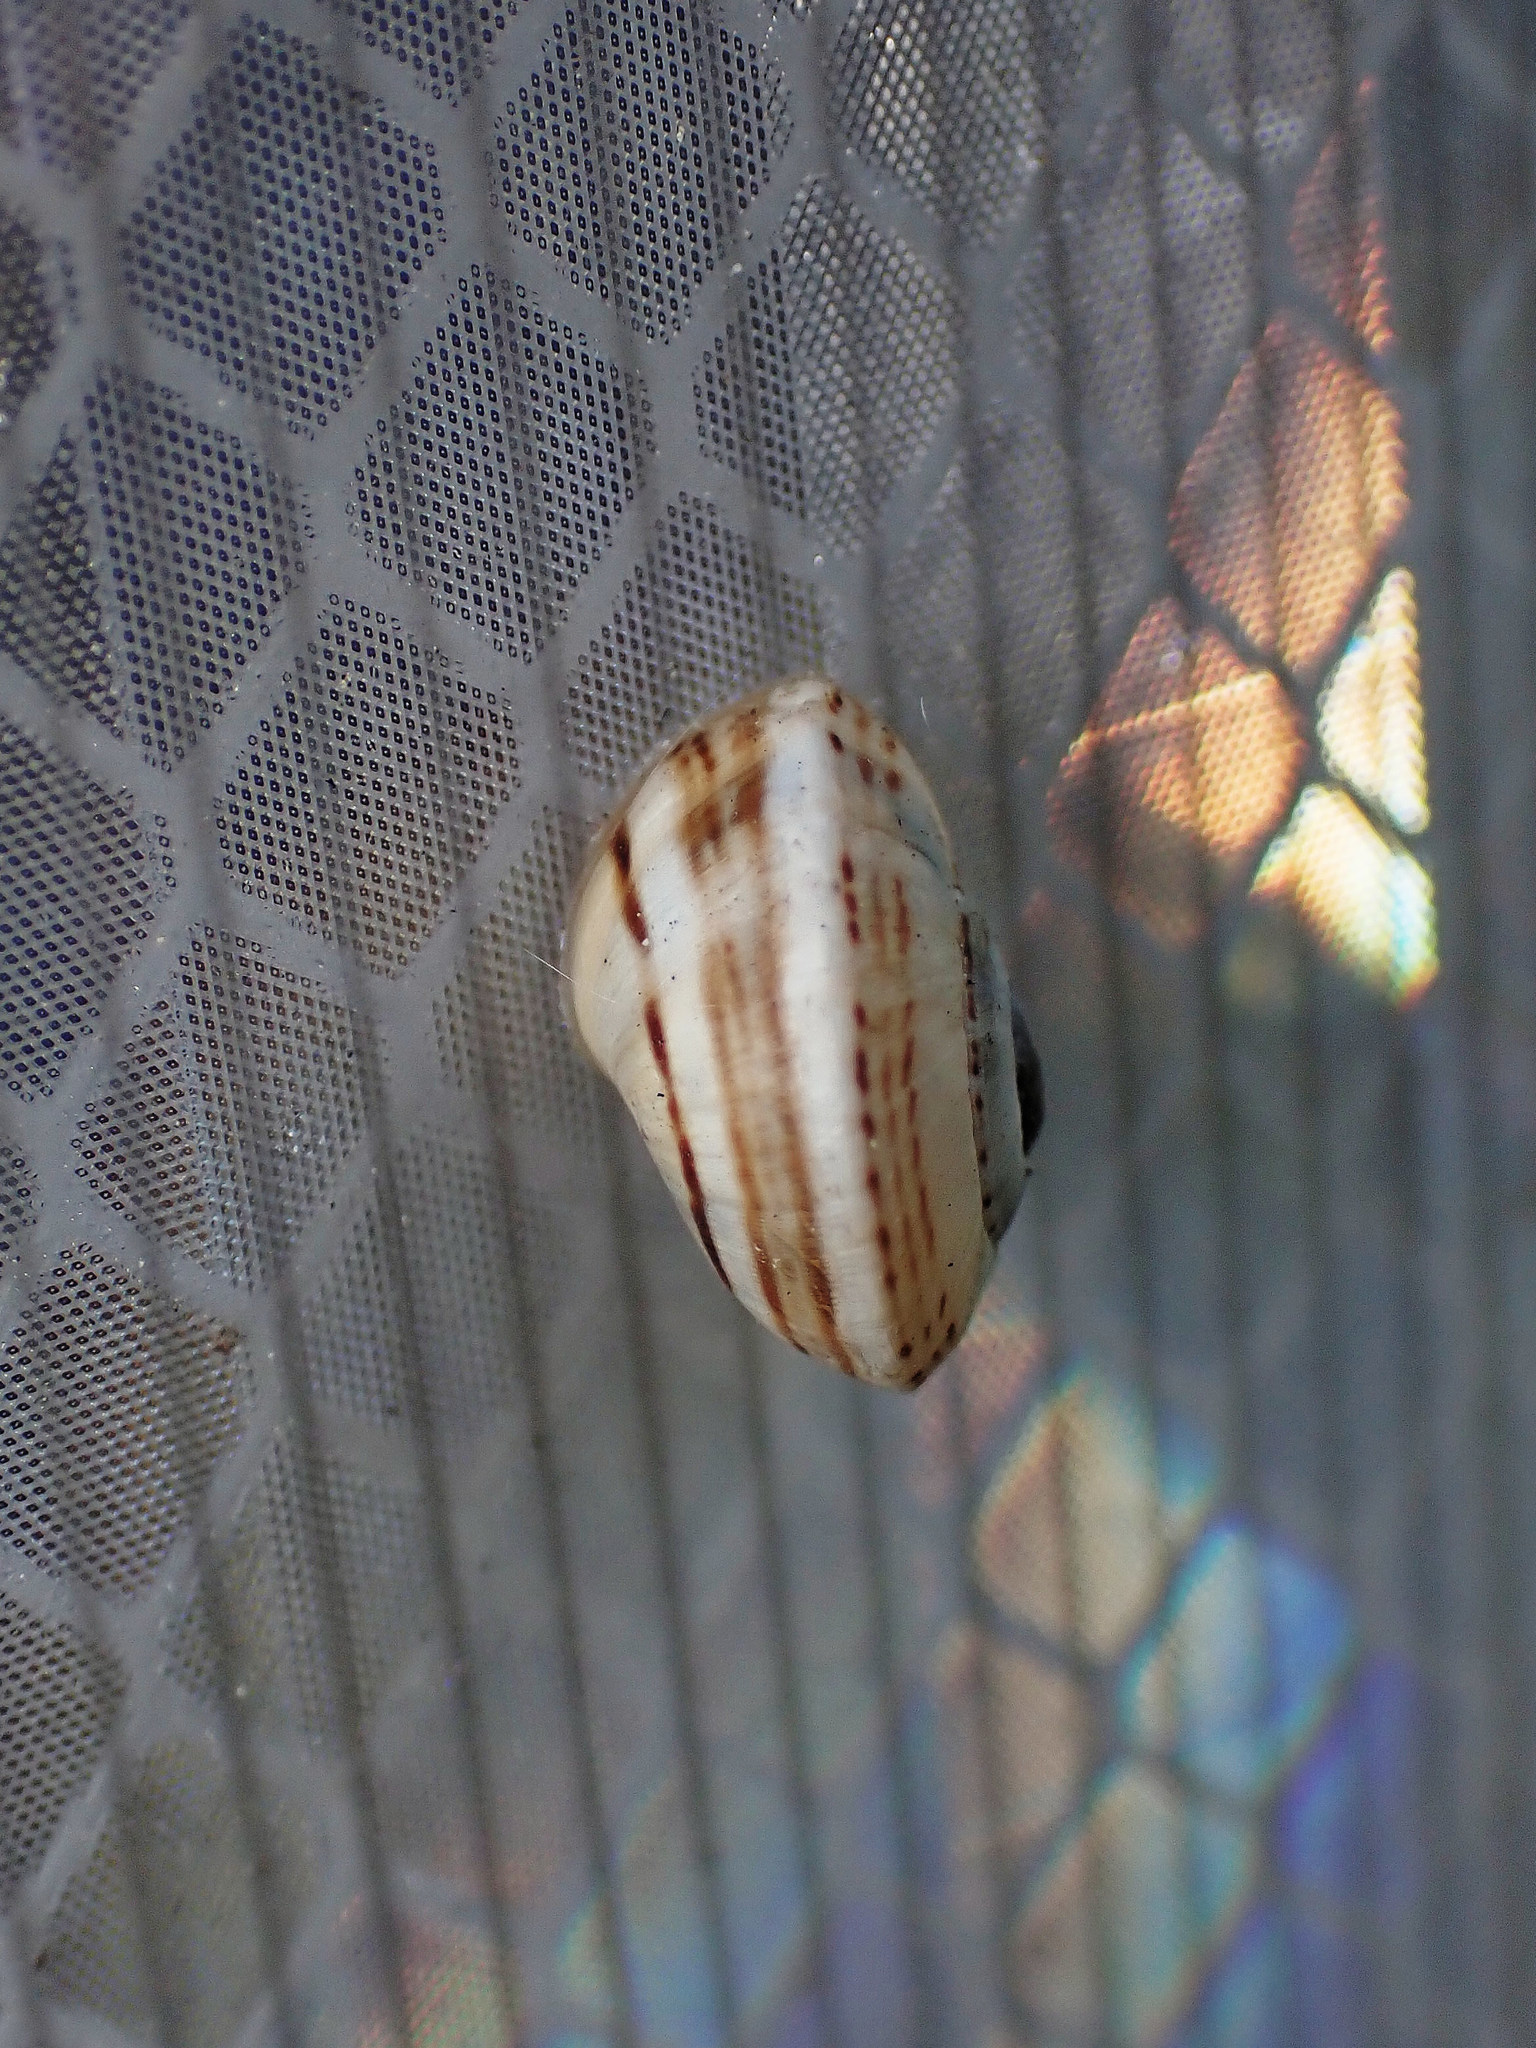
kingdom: Animalia
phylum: Mollusca
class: Gastropoda
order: Stylommatophora
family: Helicidae
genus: Theba
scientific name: Theba pisana
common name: White snail
